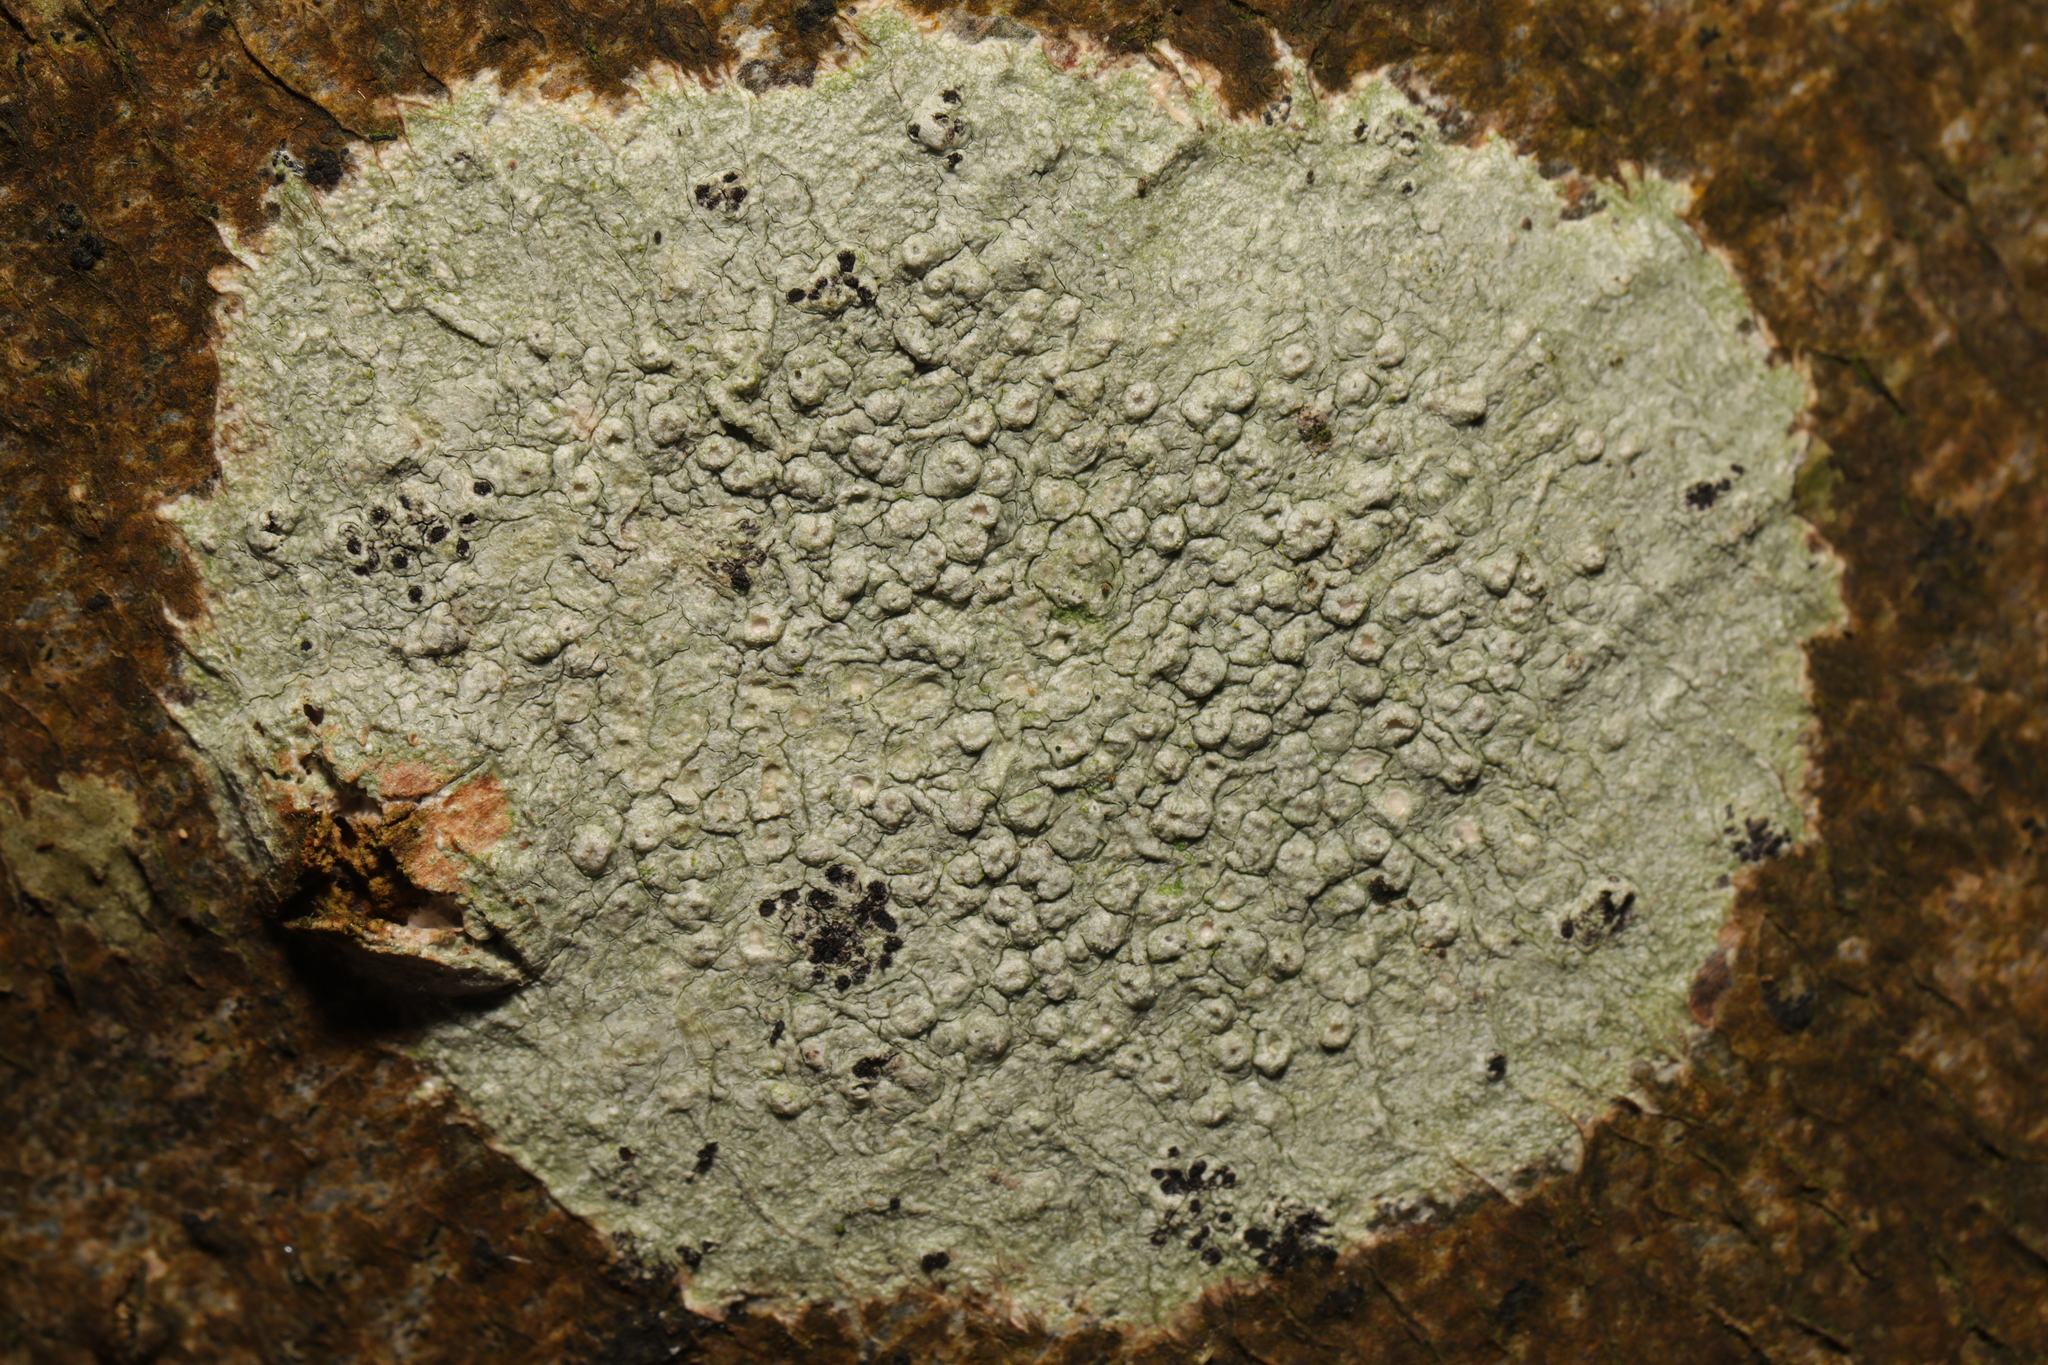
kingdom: Fungi
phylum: Ascomycota
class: Lecanoromycetes
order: Pertusariales
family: Pertusariaceae
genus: Pertusaria
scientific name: Pertusaria hymenea
